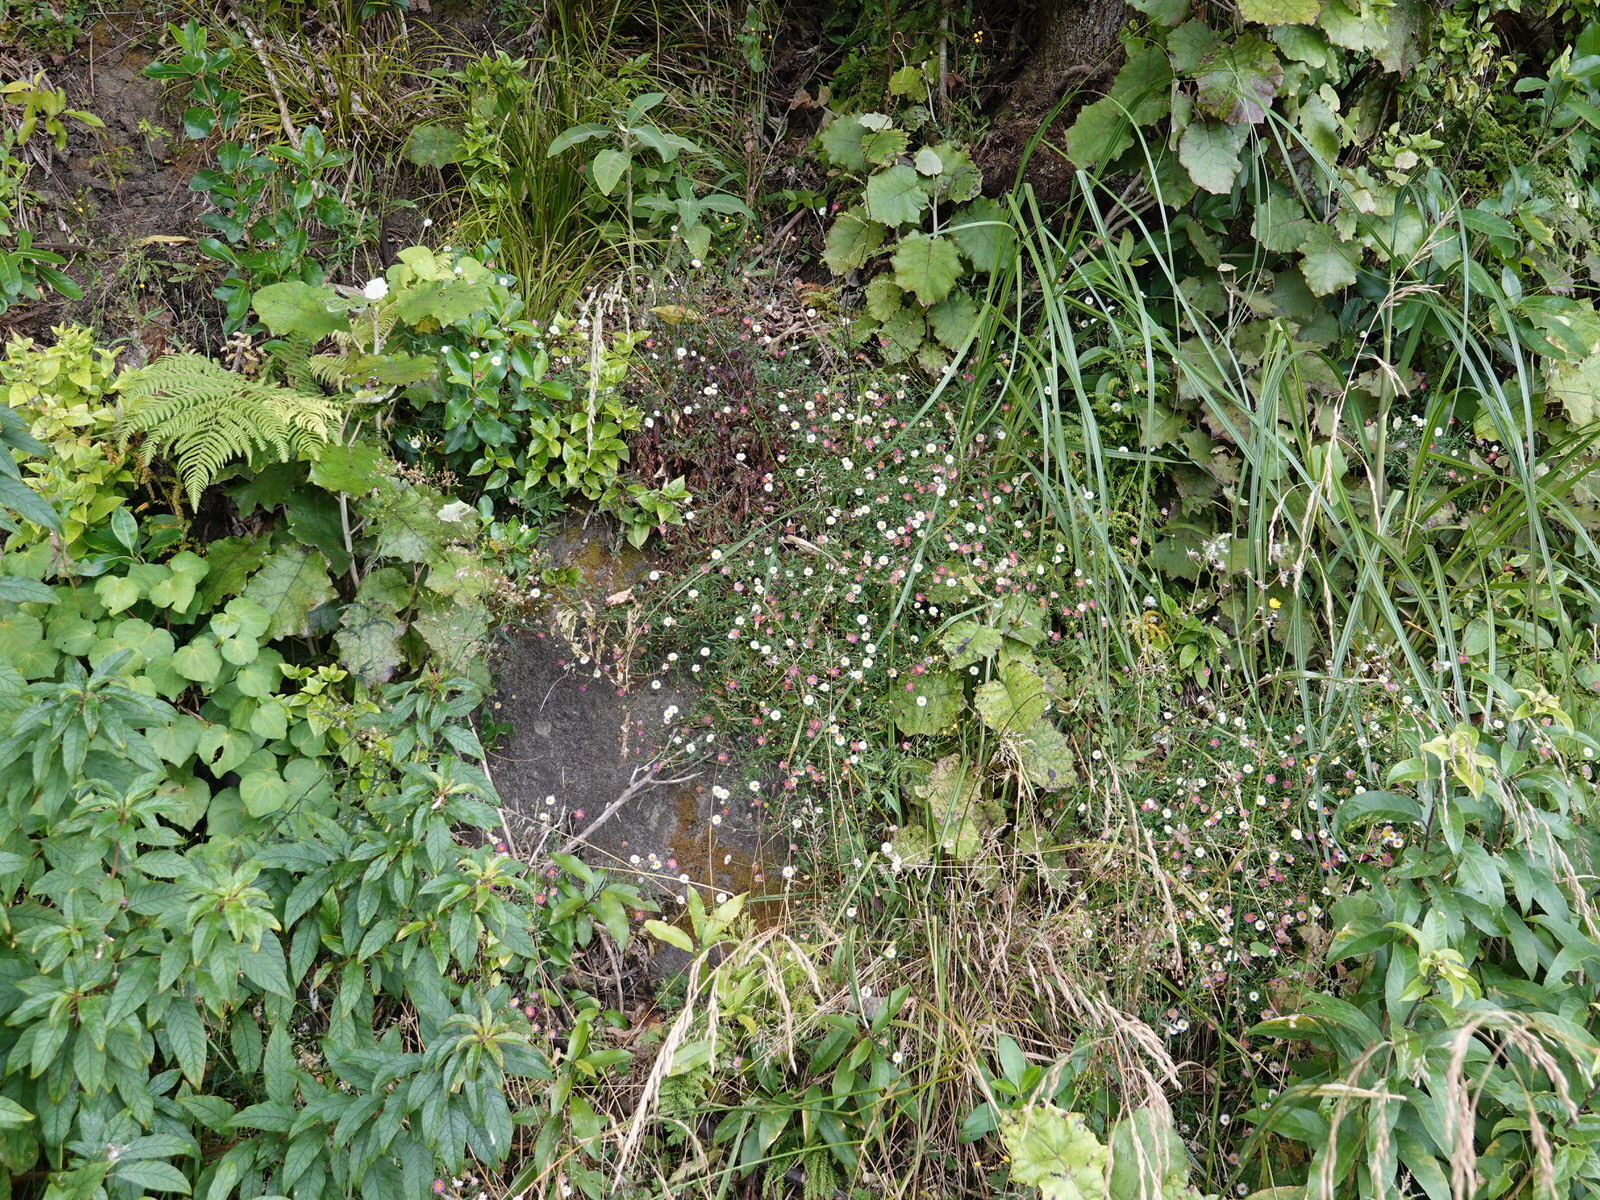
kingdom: Plantae
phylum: Tracheophyta
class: Magnoliopsida
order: Asterales
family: Asteraceae
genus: Erigeron
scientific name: Erigeron karvinskianus
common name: Mexican fleabane
